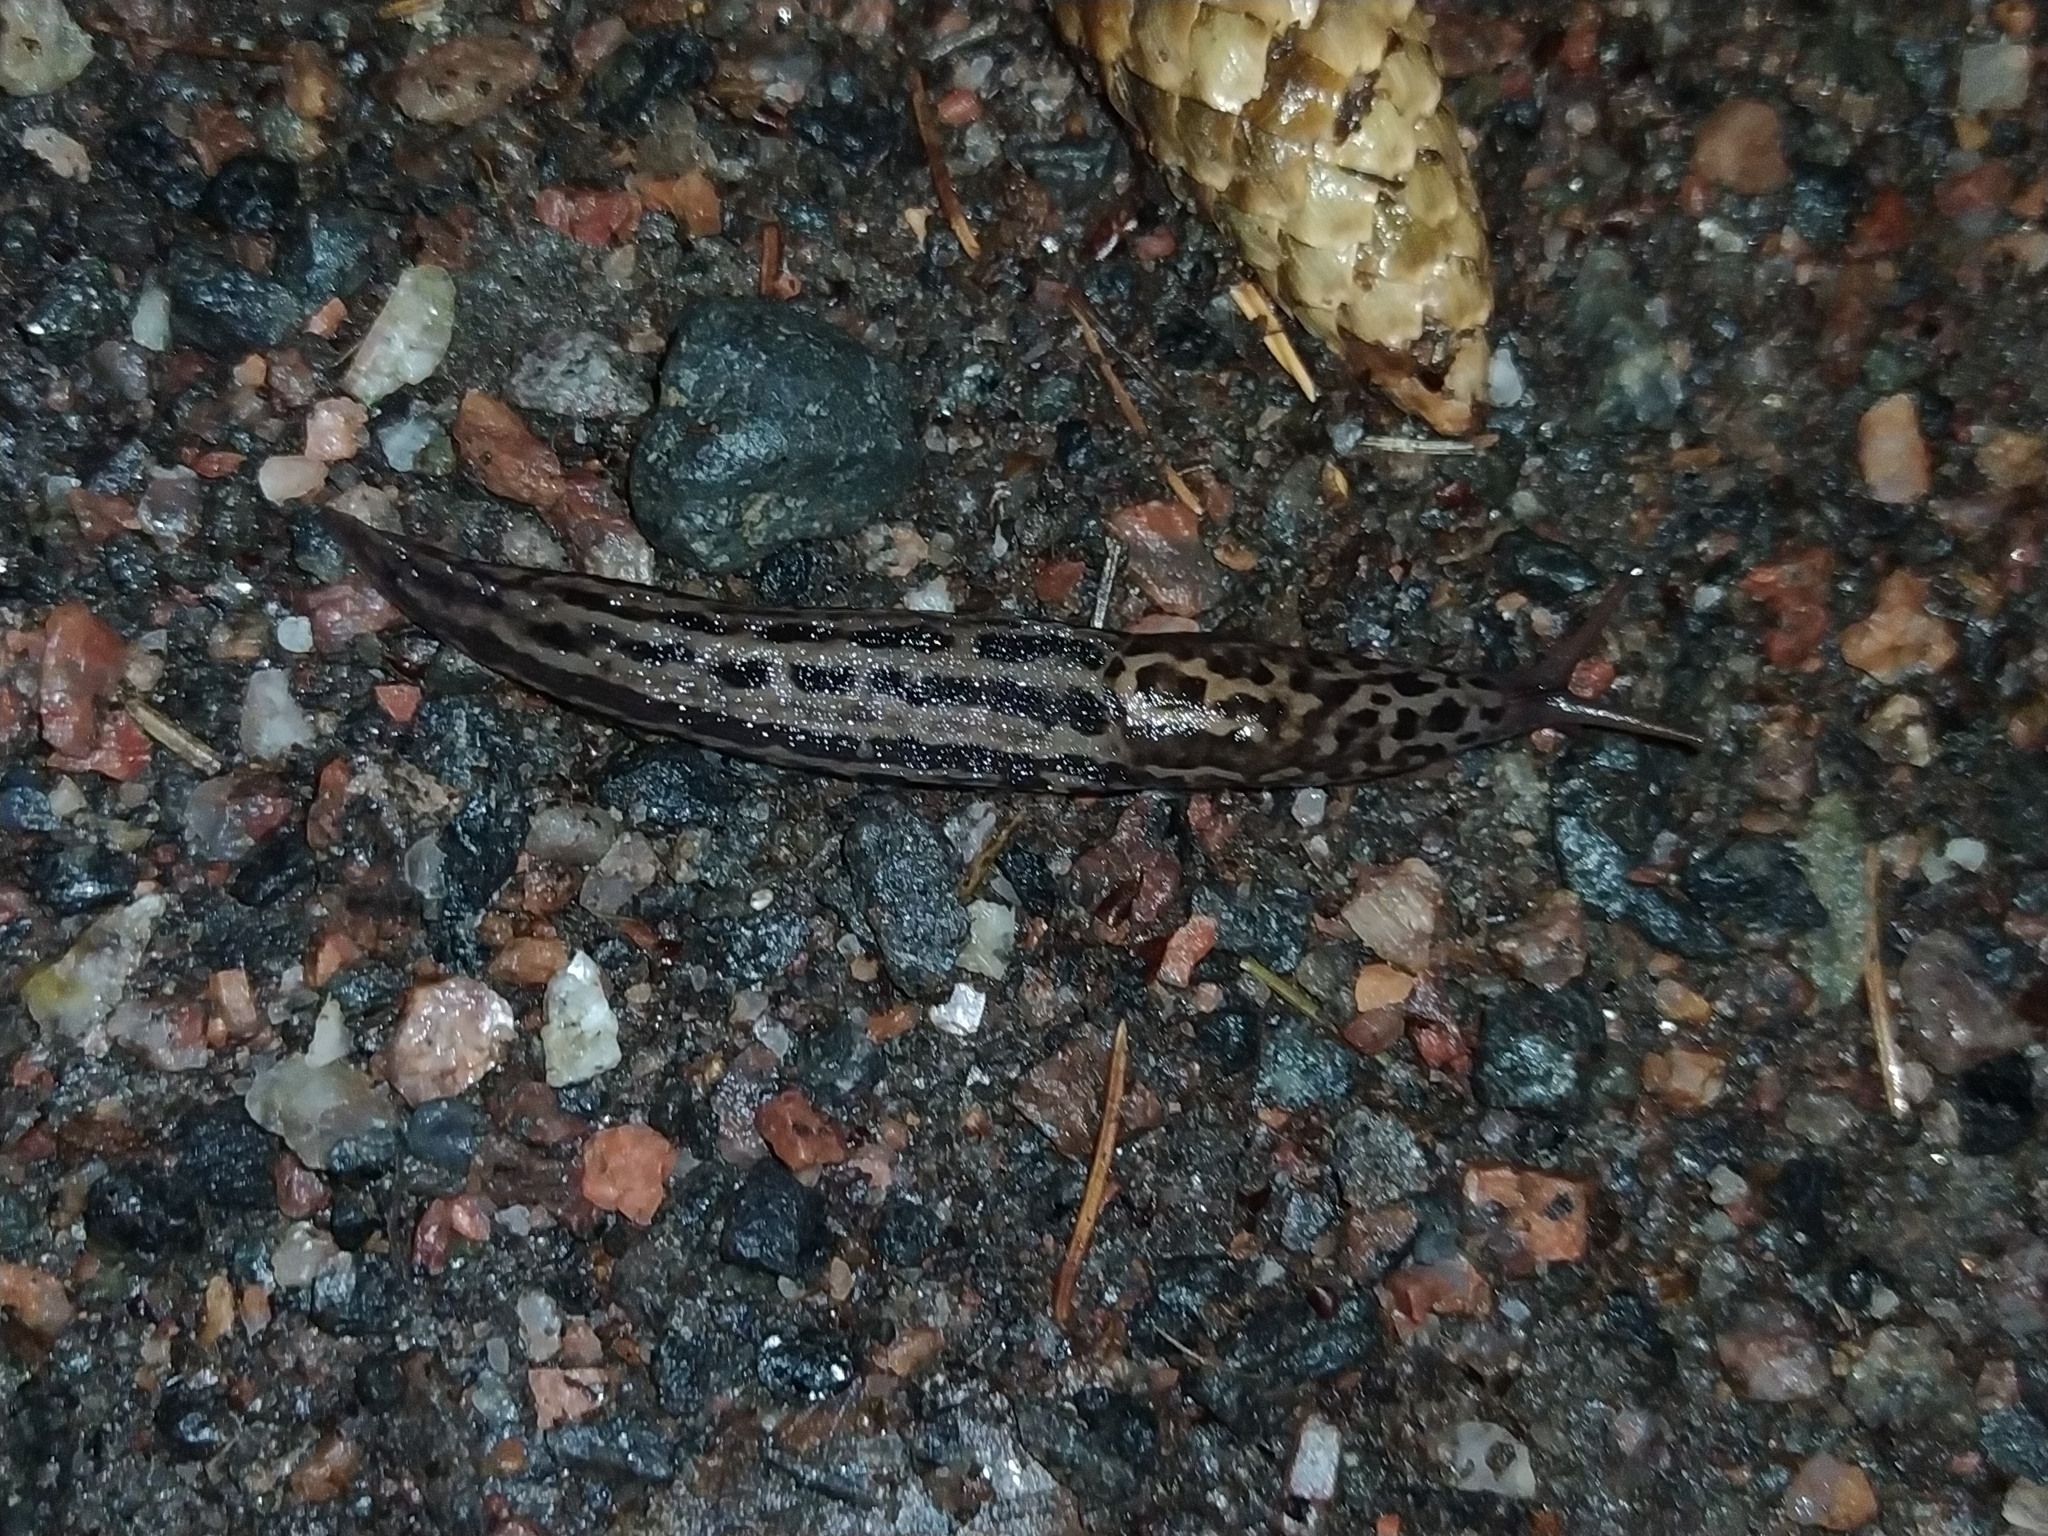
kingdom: Animalia
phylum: Mollusca
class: Gastropoda
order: Stylommatophora
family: Limacidae
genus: Limax
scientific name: Limax maximus
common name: Great grey slug
